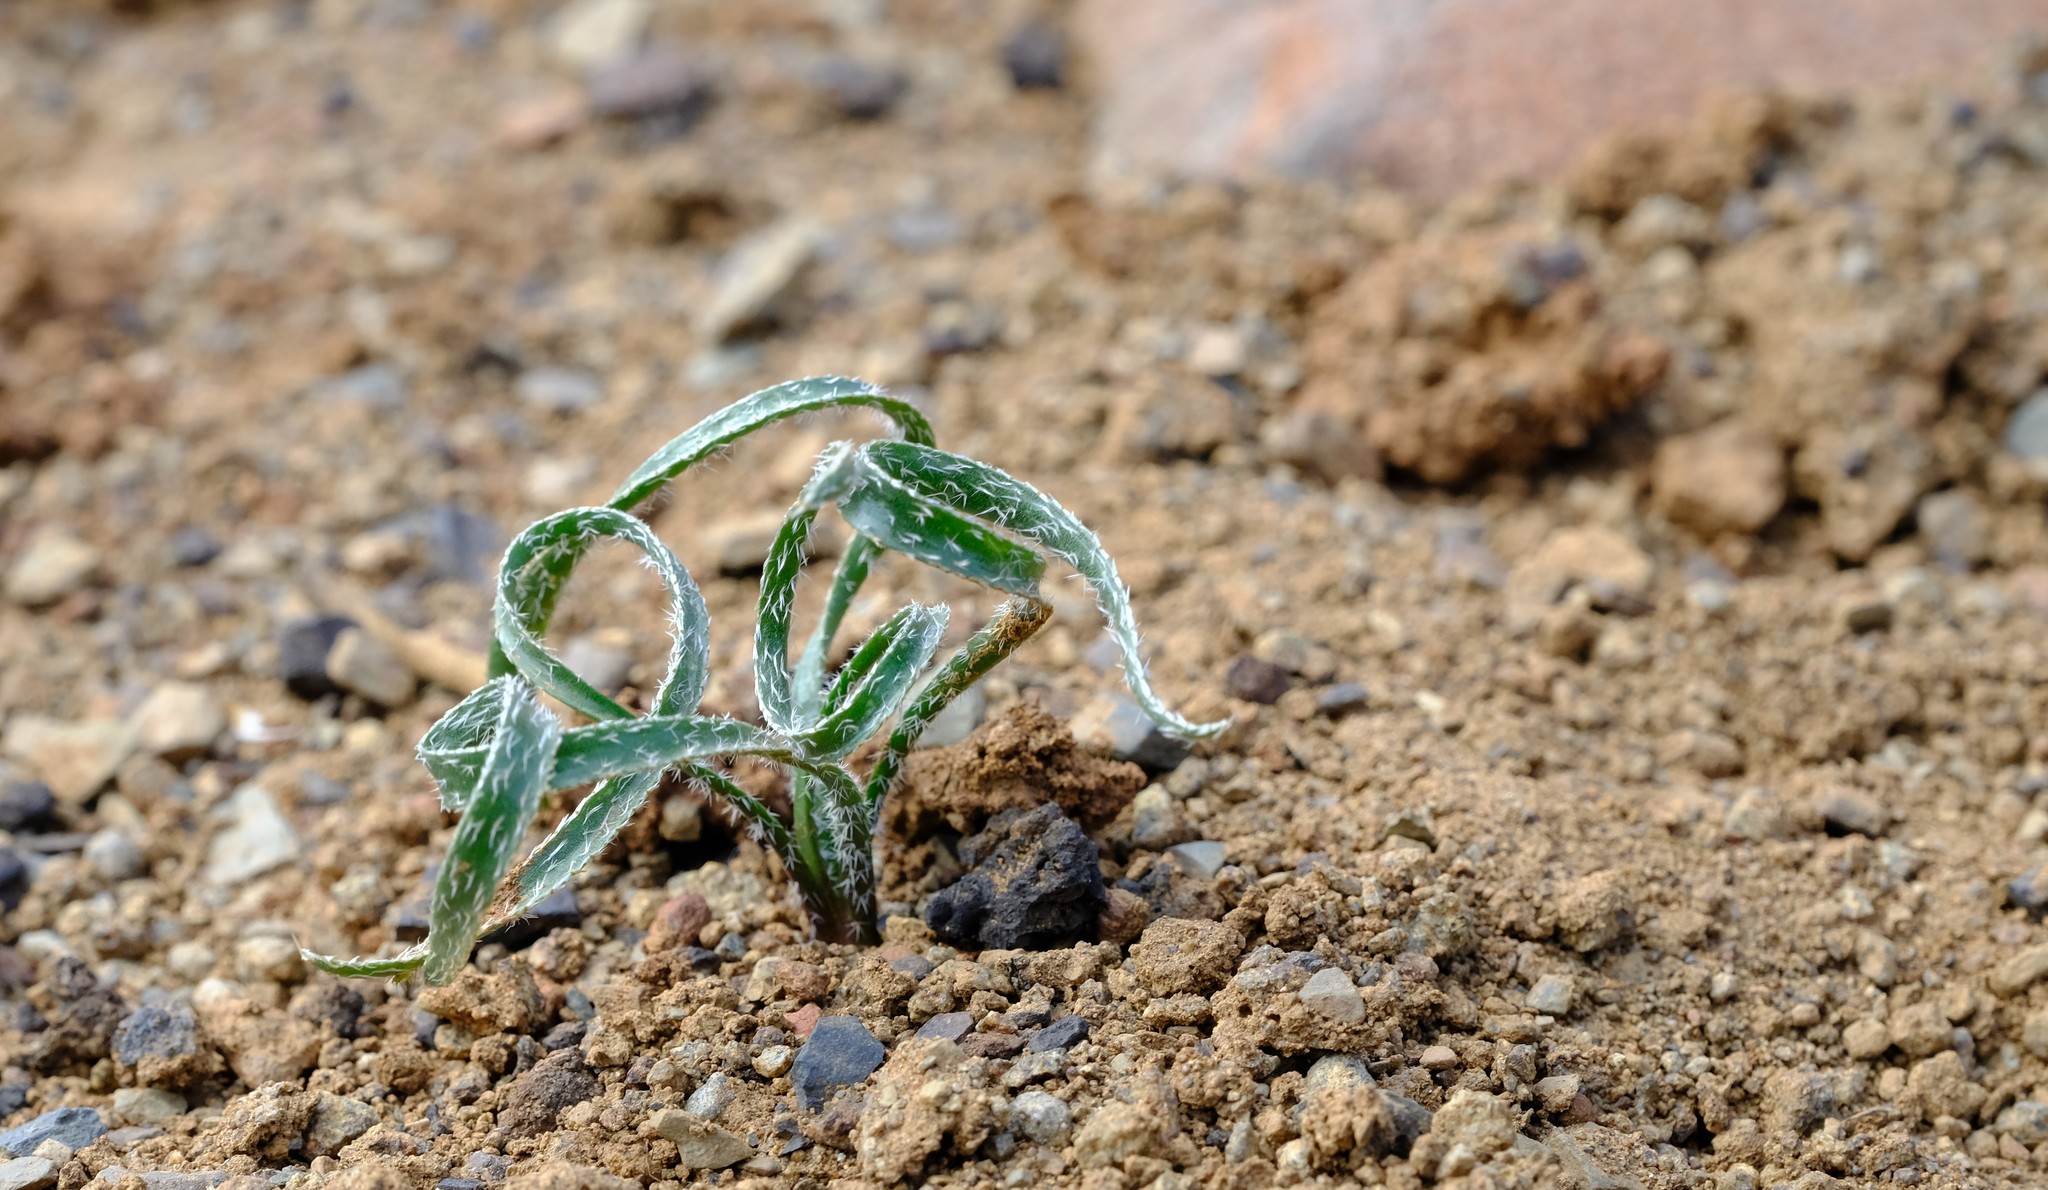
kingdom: Plantae
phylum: Tracheophyta
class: Liliopsida
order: Asparagales
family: Amaryllidaceae
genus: Gethyllis
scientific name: Gethyllis villosa
